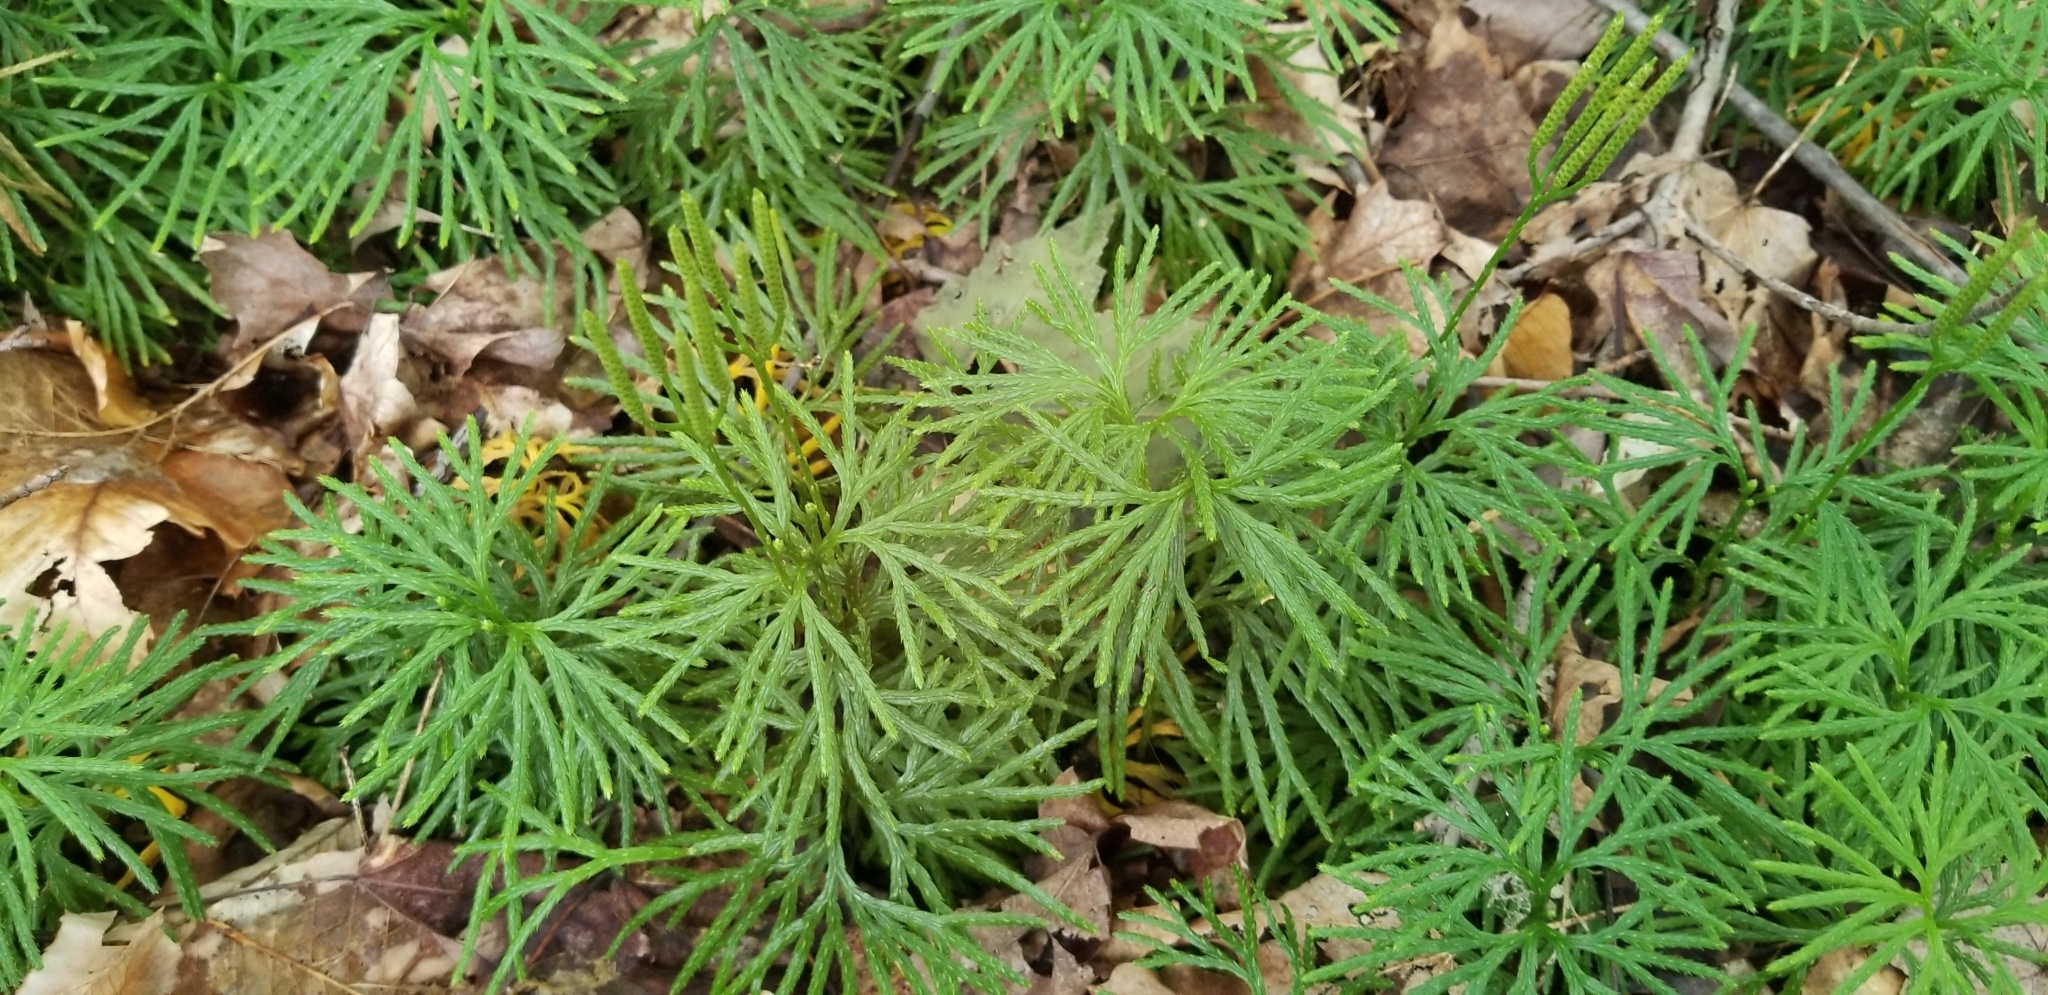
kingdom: Plantae
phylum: Tracheophyta
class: Lycopodiopsida
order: Lycopodiales
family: Lycopodiaceae
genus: Diphasiastrum
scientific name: Diphasiastrum digitatum
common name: Southern running-pine
